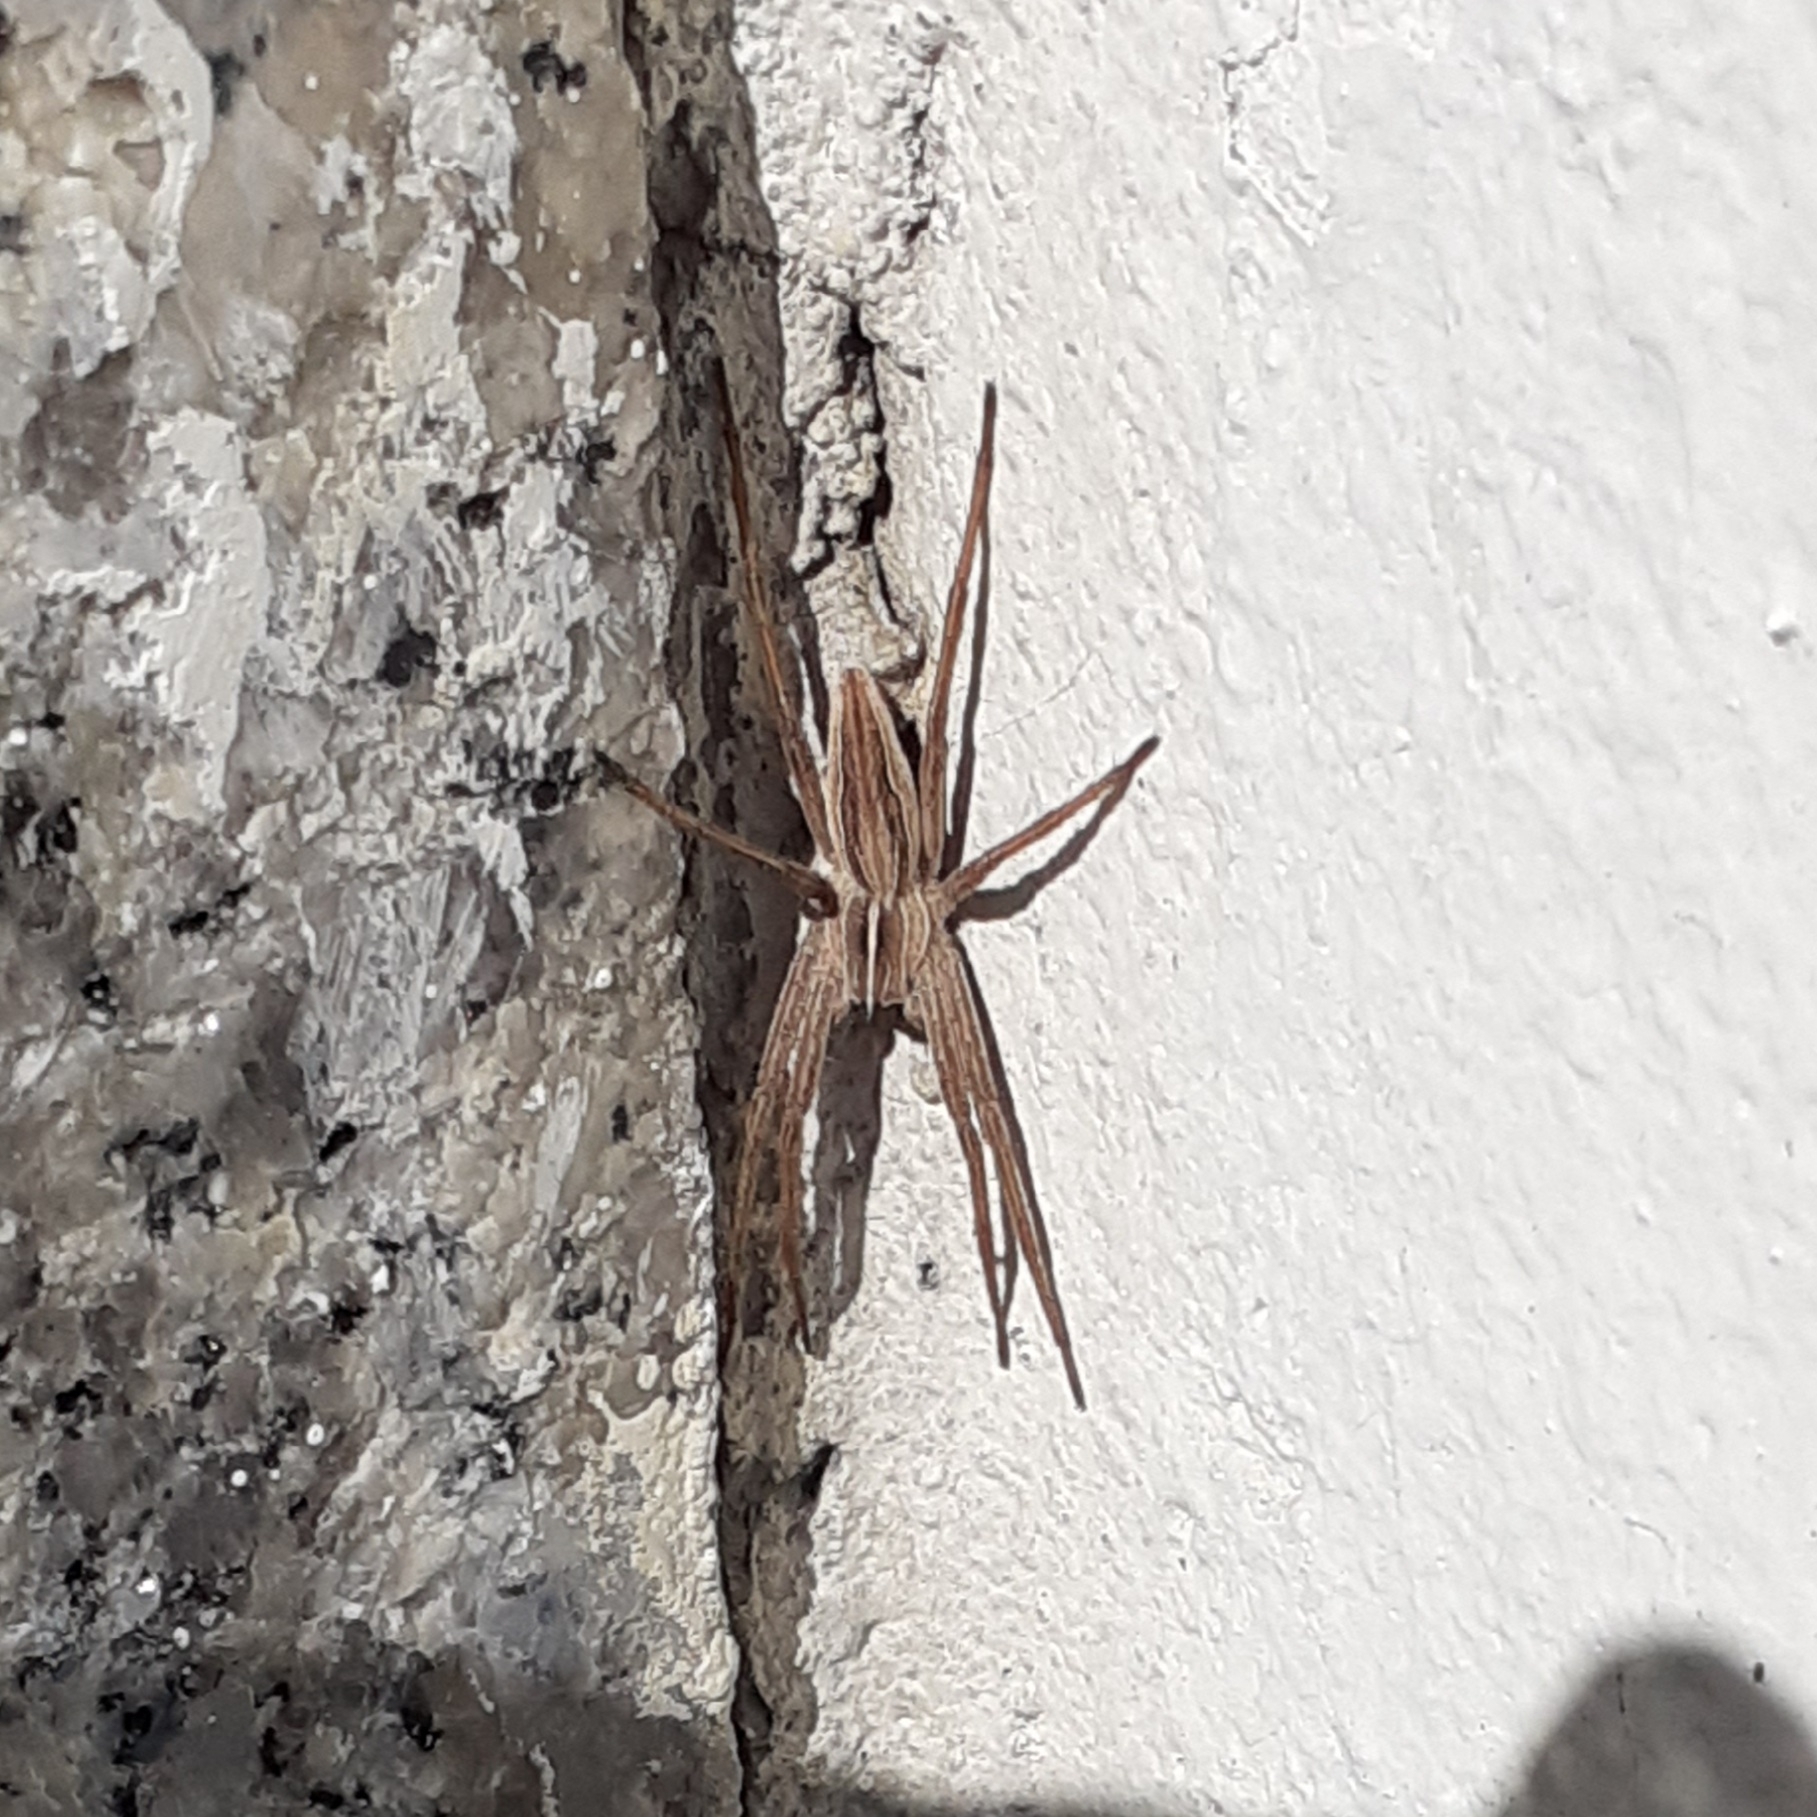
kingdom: Animalia
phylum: Arthropoda
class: Arachnida
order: Araneae
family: Pisauridae
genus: Pisaura
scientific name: Pisaura mirabilis
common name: Tent spider
